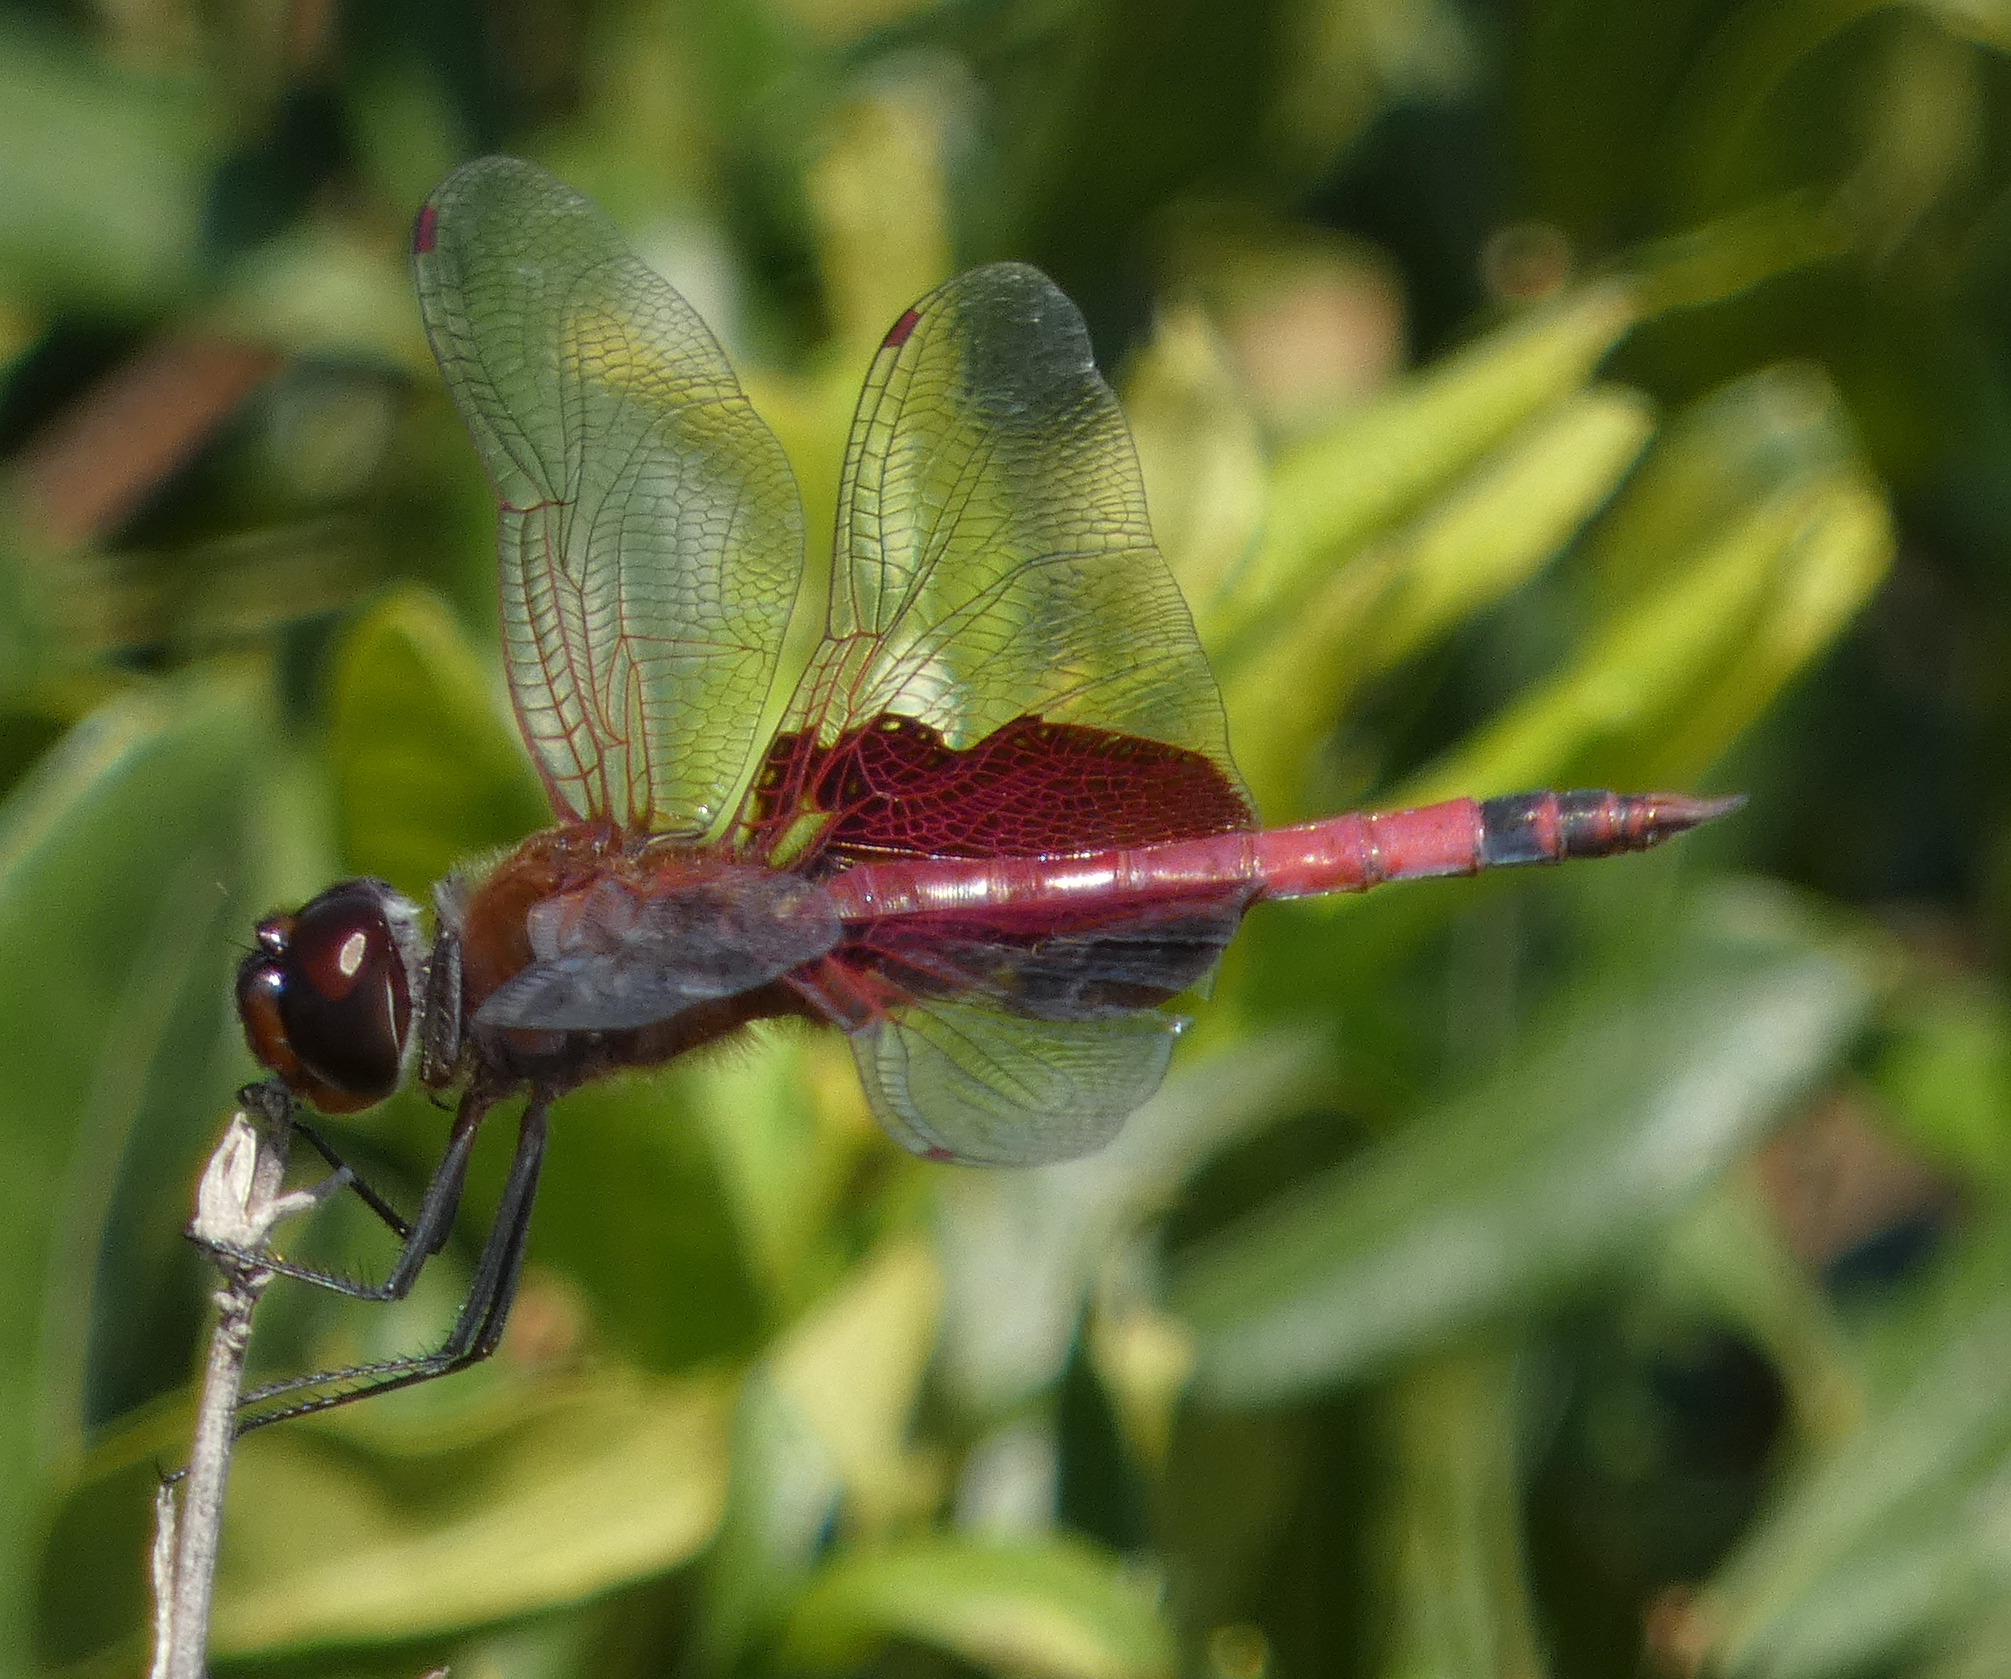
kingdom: Animalia
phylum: Arthropoda
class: Insecta
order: Odonata
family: Libellulidae
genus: Tramea
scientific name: Tramea carolina
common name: Carolina saddlebags
